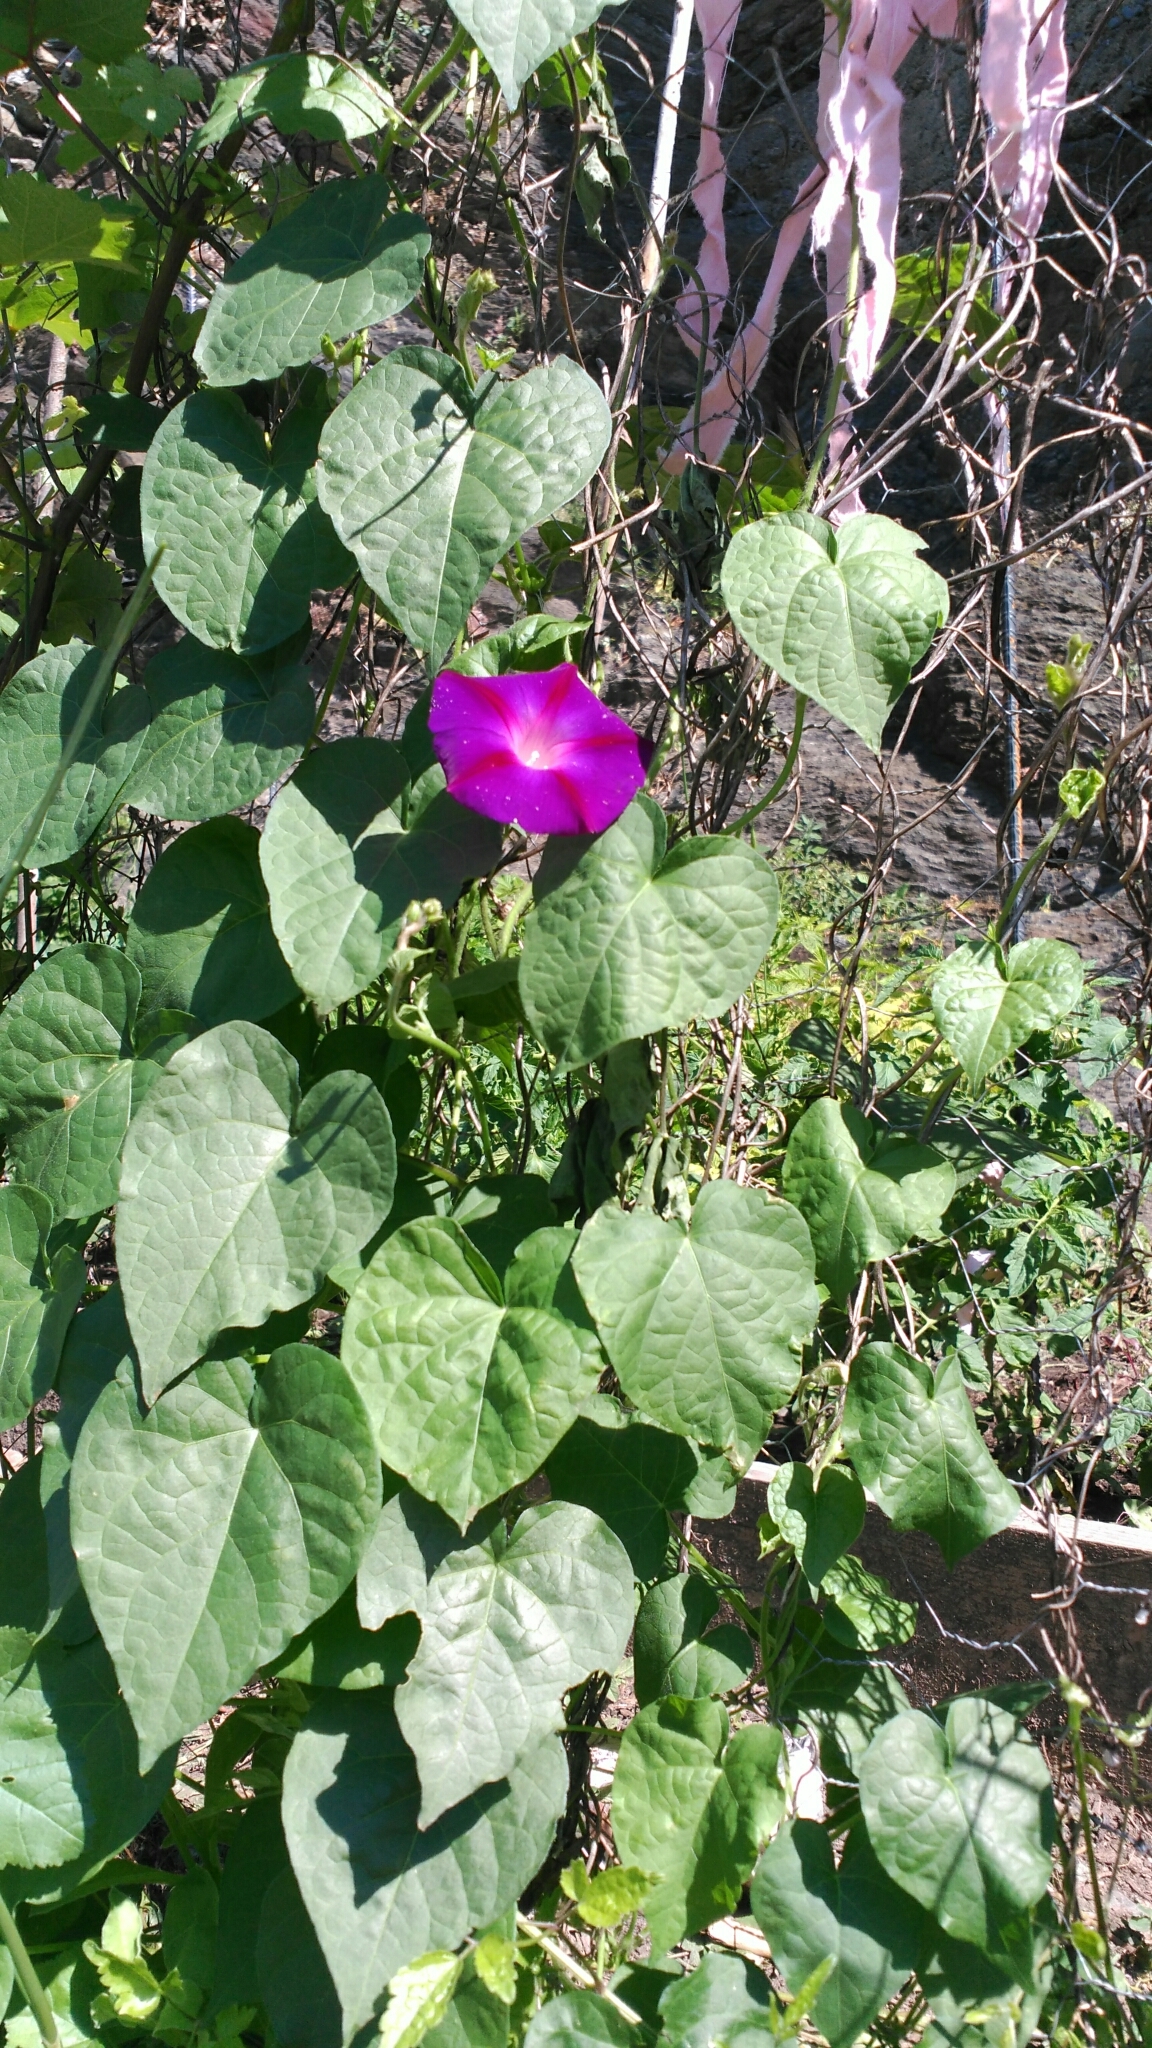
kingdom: Plantae
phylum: Tracheophyta
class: Magnoliopsida
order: Solanales
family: Convolvulaceae
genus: Ipomoea
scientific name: Ipomoea purpurea
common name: Common morning-glory
